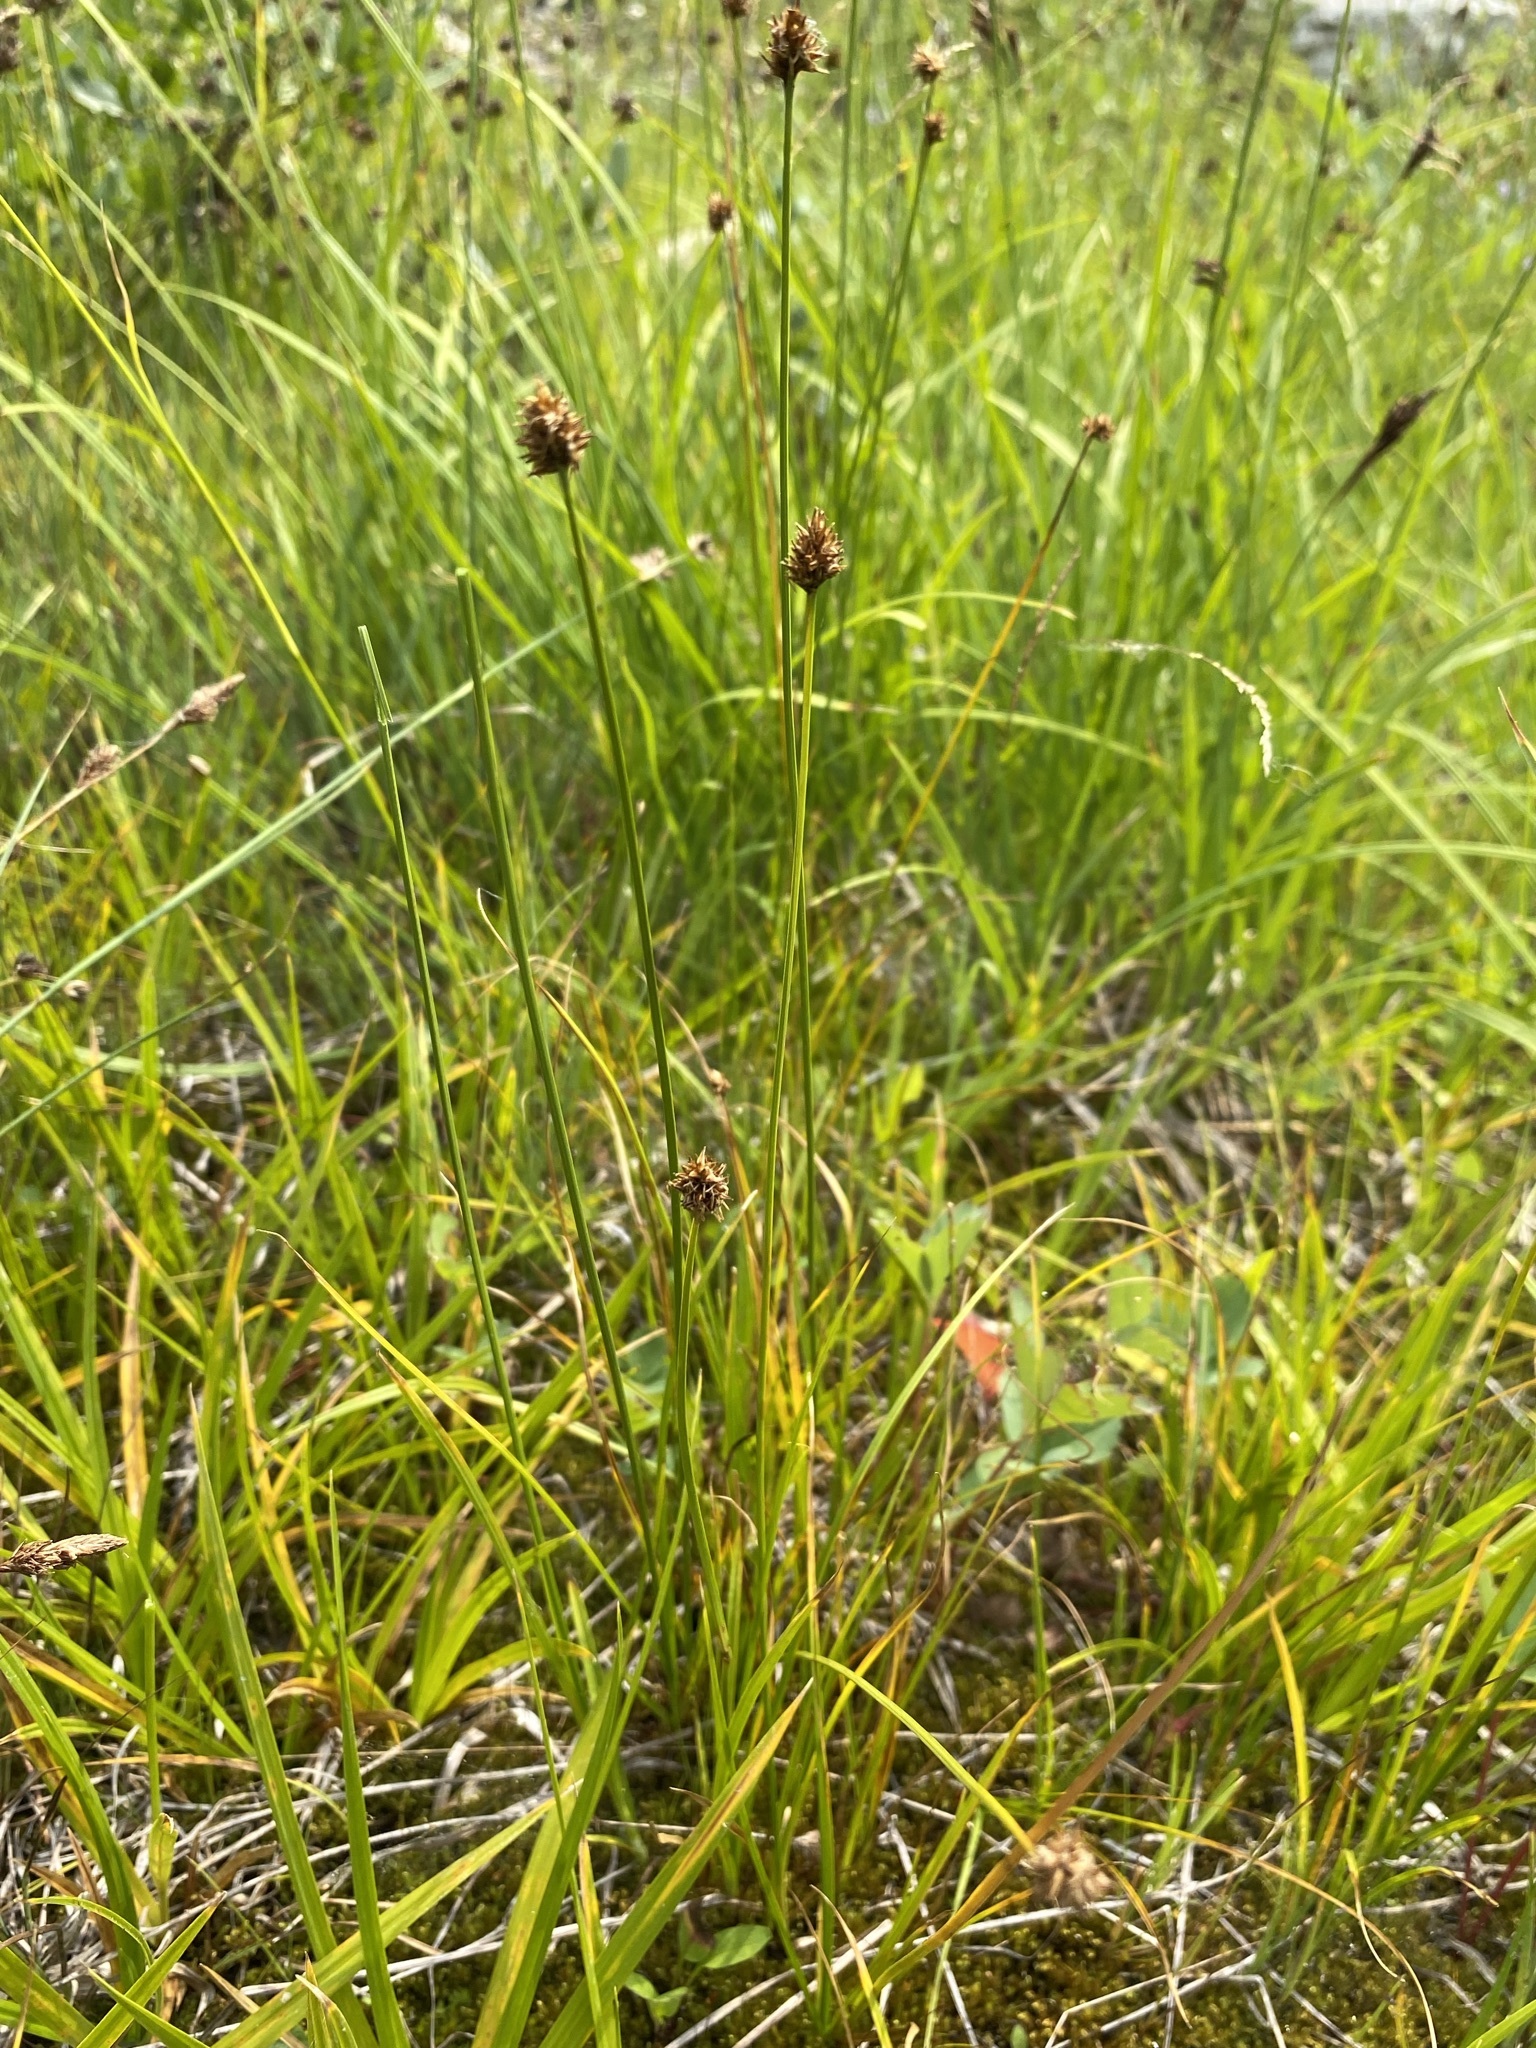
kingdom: Plantae
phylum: Tracheophyta
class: Liliopsida
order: Poales
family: Cyperaceae
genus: Carex
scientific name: Carex neurophora
